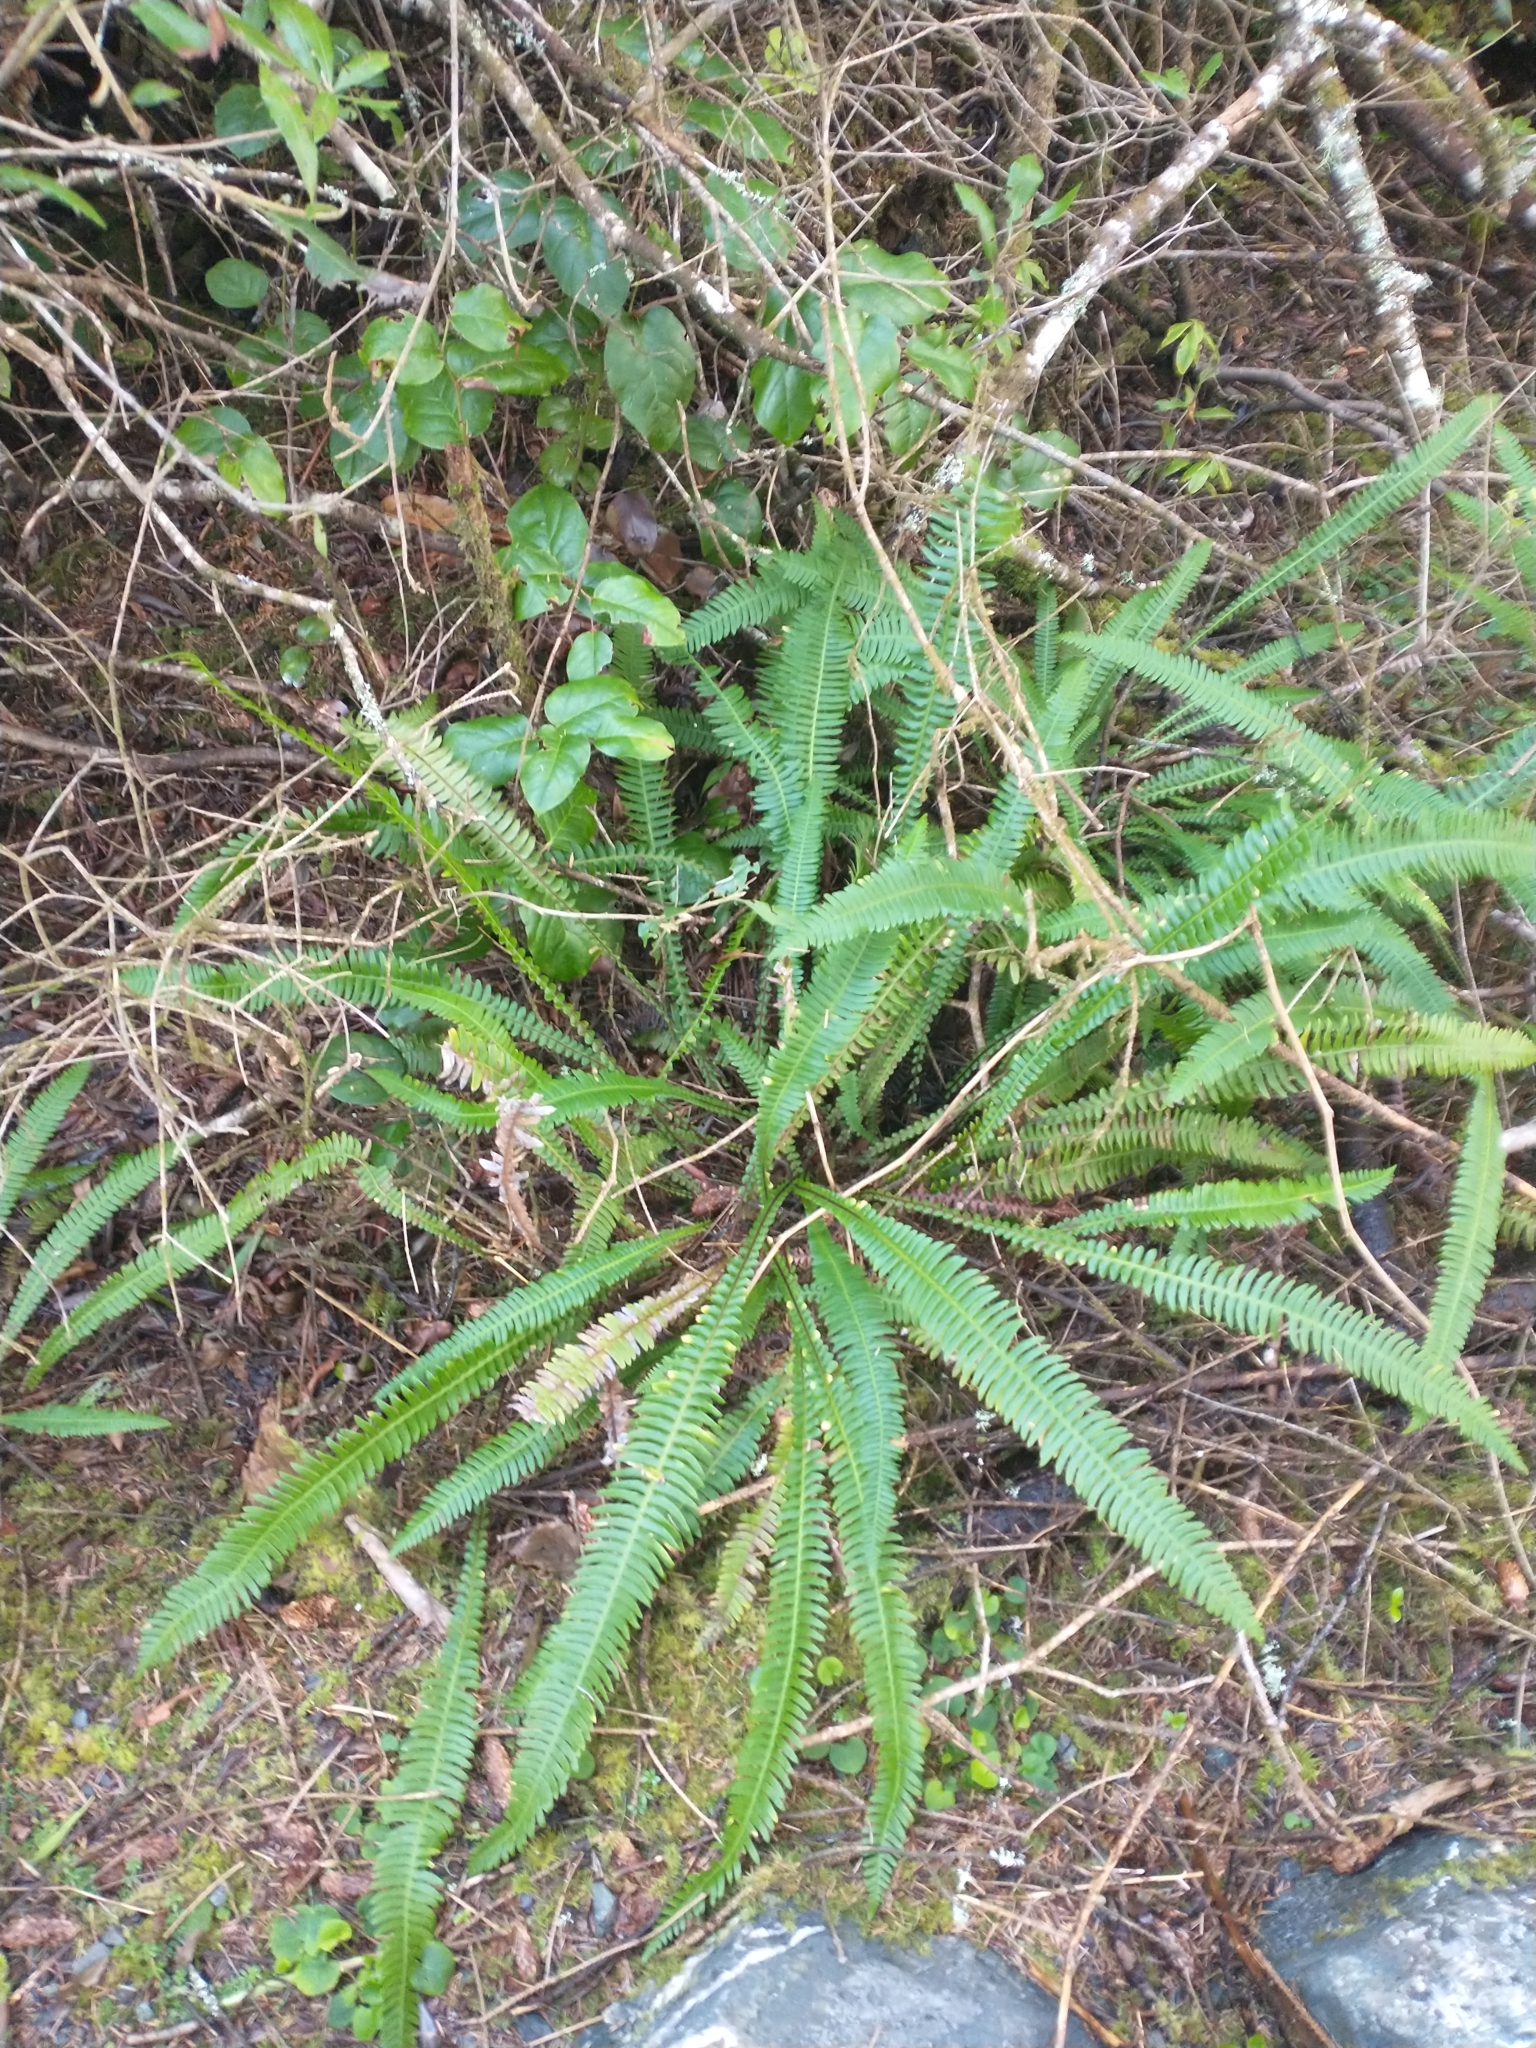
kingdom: Plantae
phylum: Tracheophyta
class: Polypodiopsida
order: Polypodiales
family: Blechnaceae
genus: Struthiopteris
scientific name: Struthiopteris spicant
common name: Deer fern
